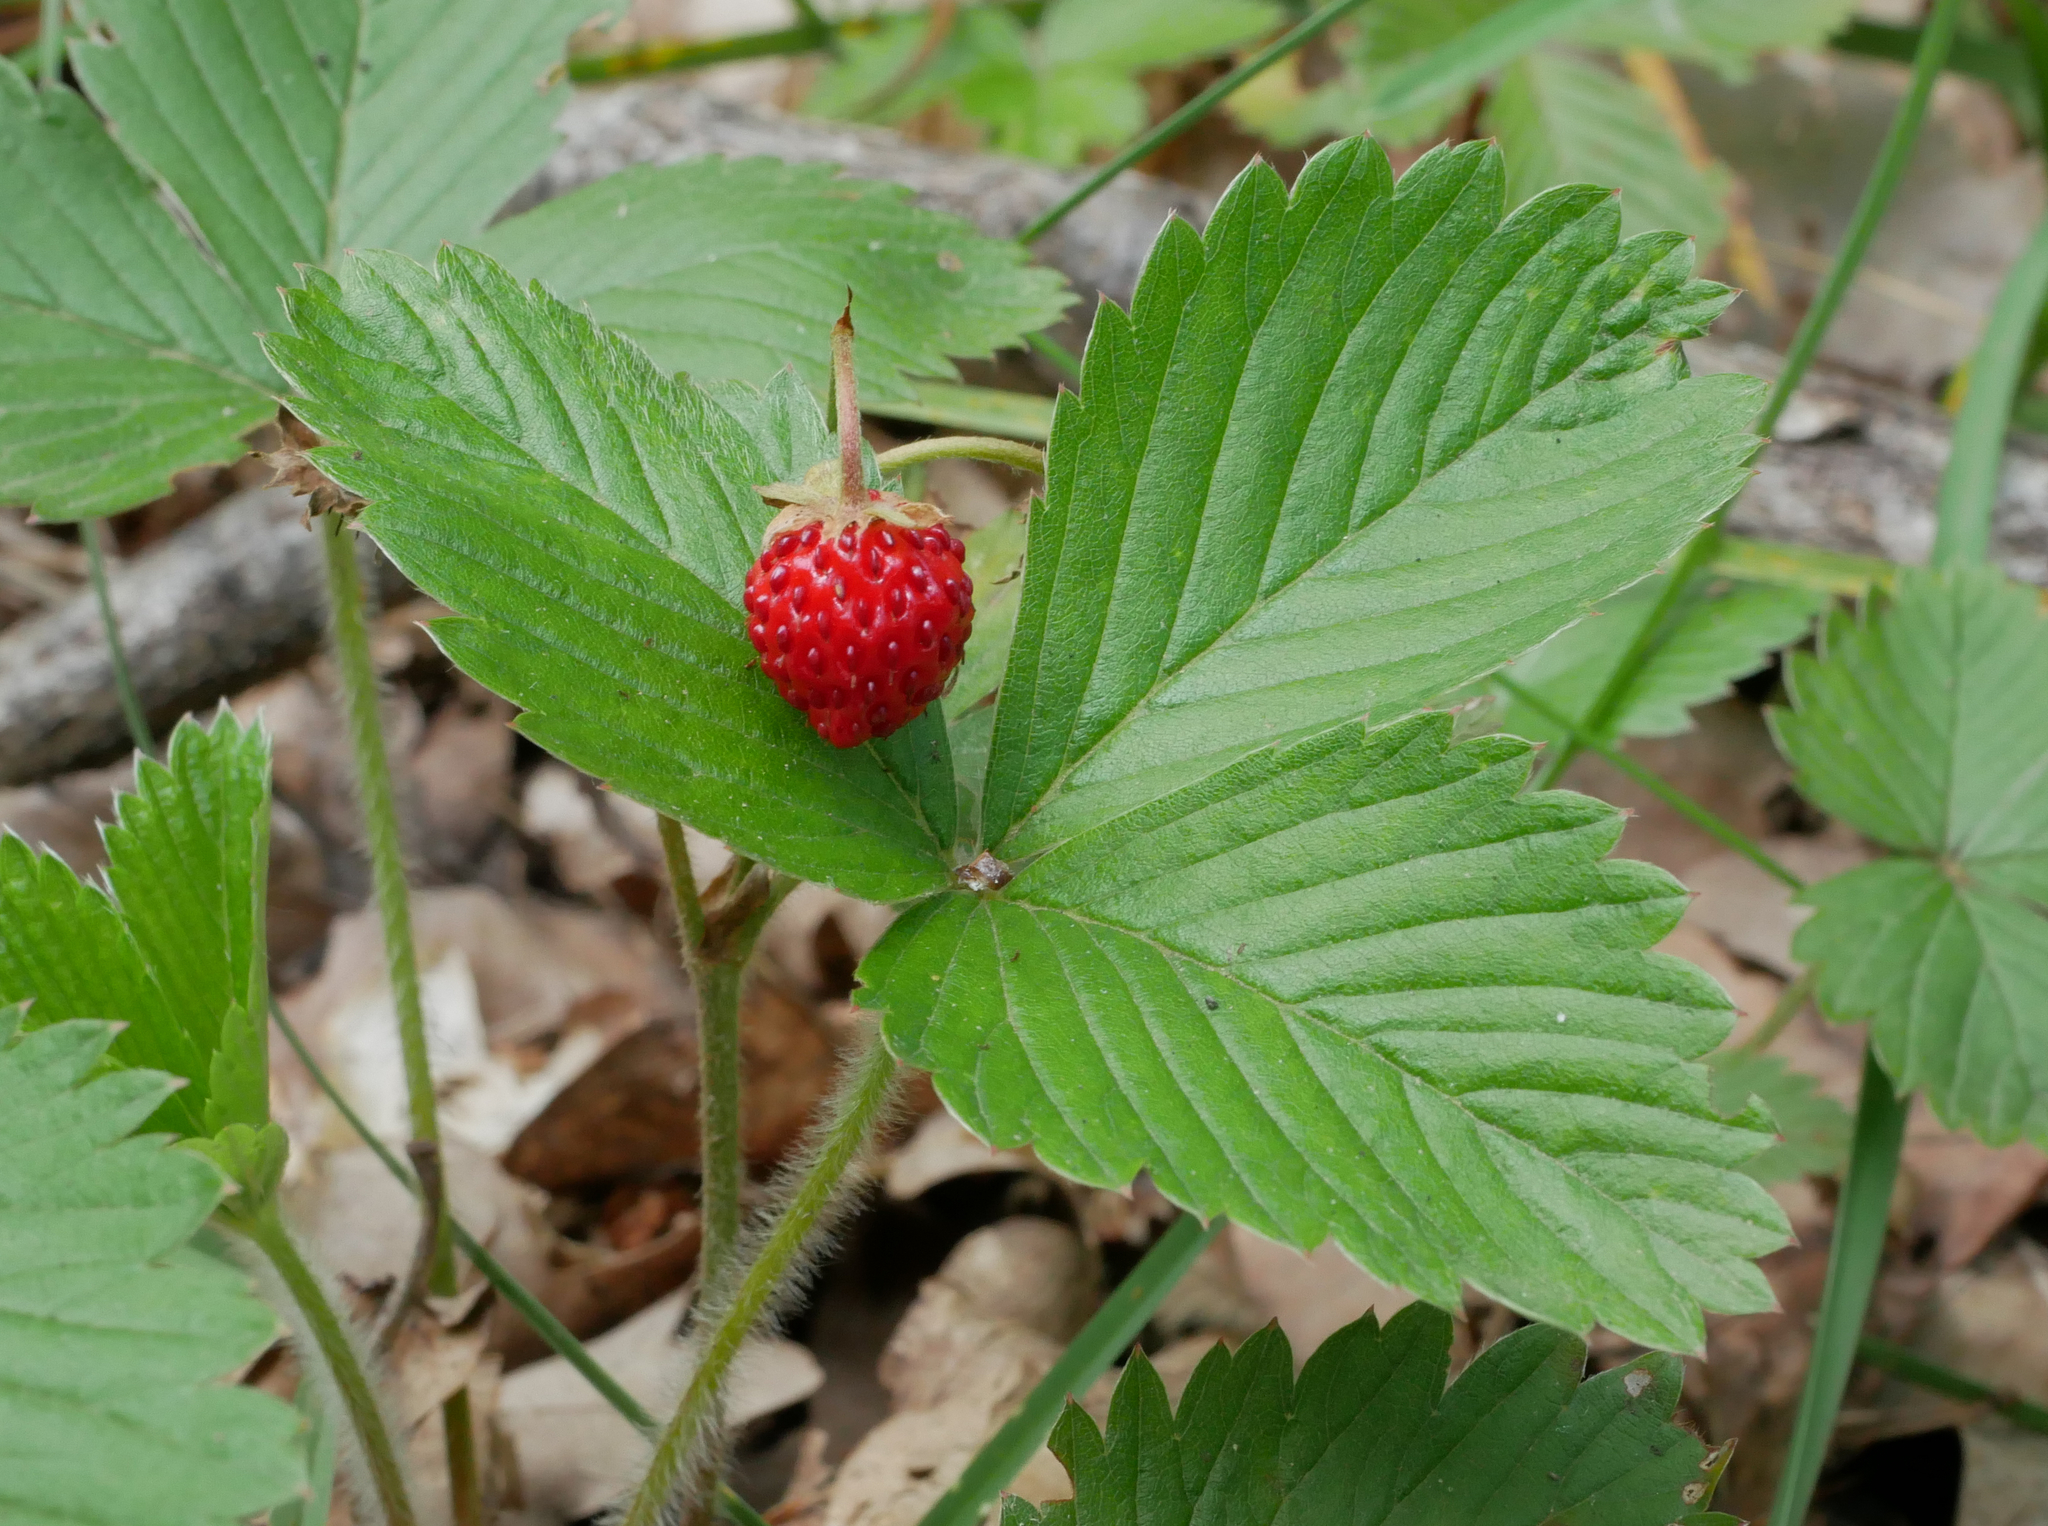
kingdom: Plantae
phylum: Tracheophyta
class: Magnoliopsida
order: Rosales
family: Rosaceae
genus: Fragaria
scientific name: Fragaria vesca
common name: Wild strawberry
